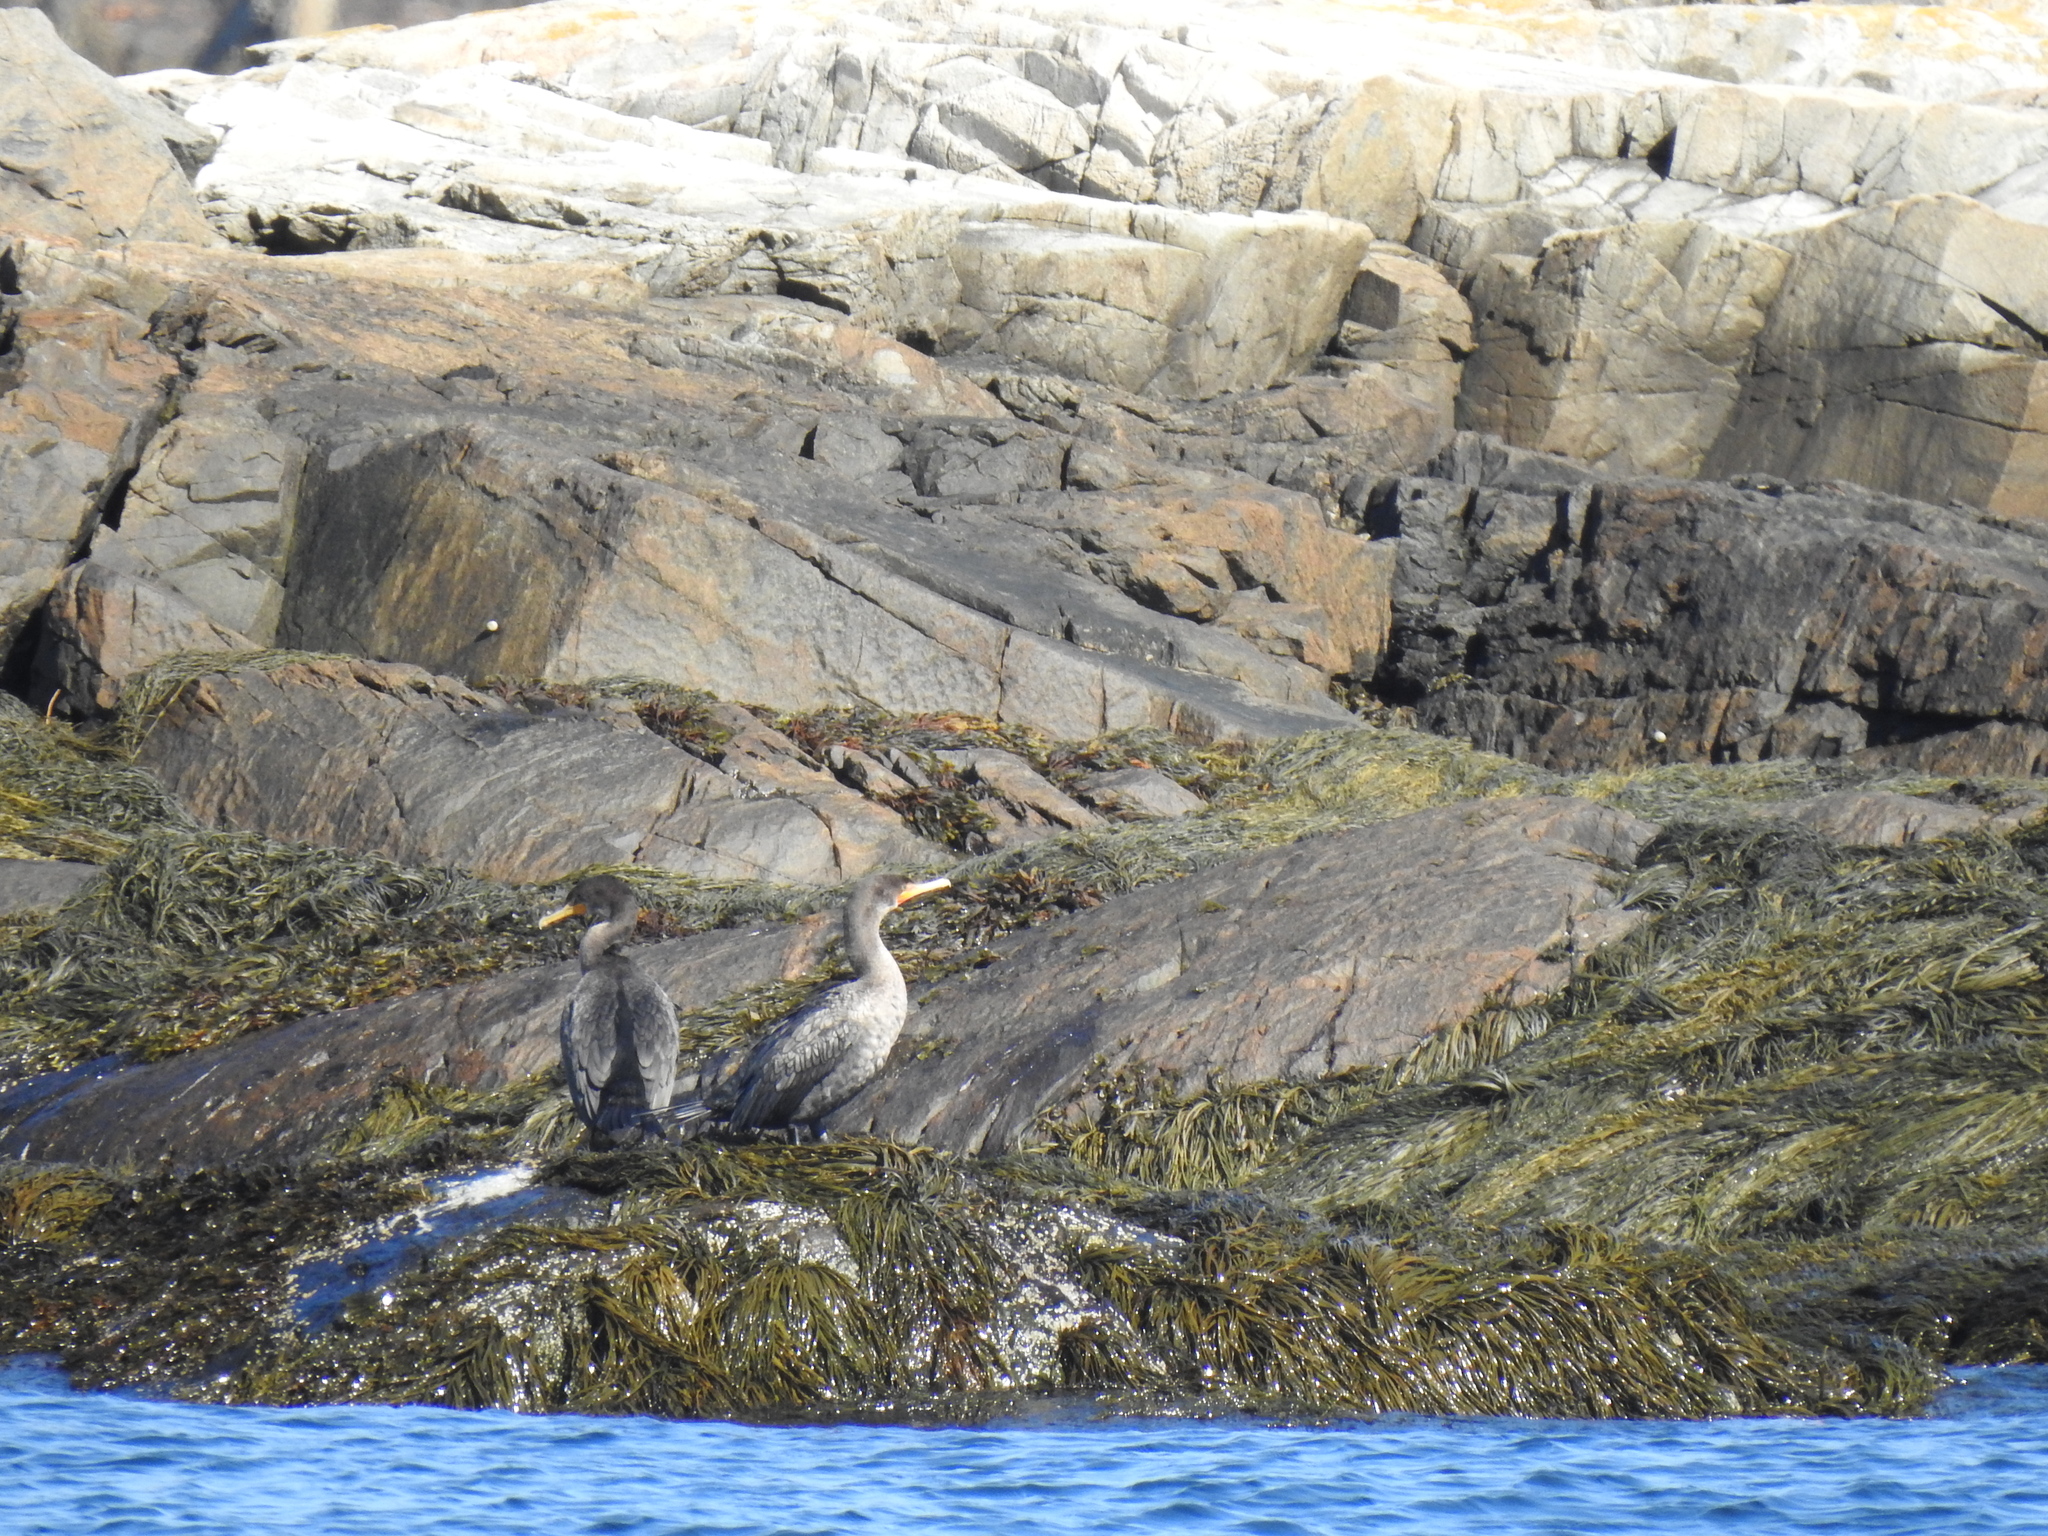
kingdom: Animalia
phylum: Chordata
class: Aves
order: Suliformes
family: Phalacrocoracidae
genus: Phalacrocorax
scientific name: Phalacrocorax auritus
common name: Double-crested cormorant
